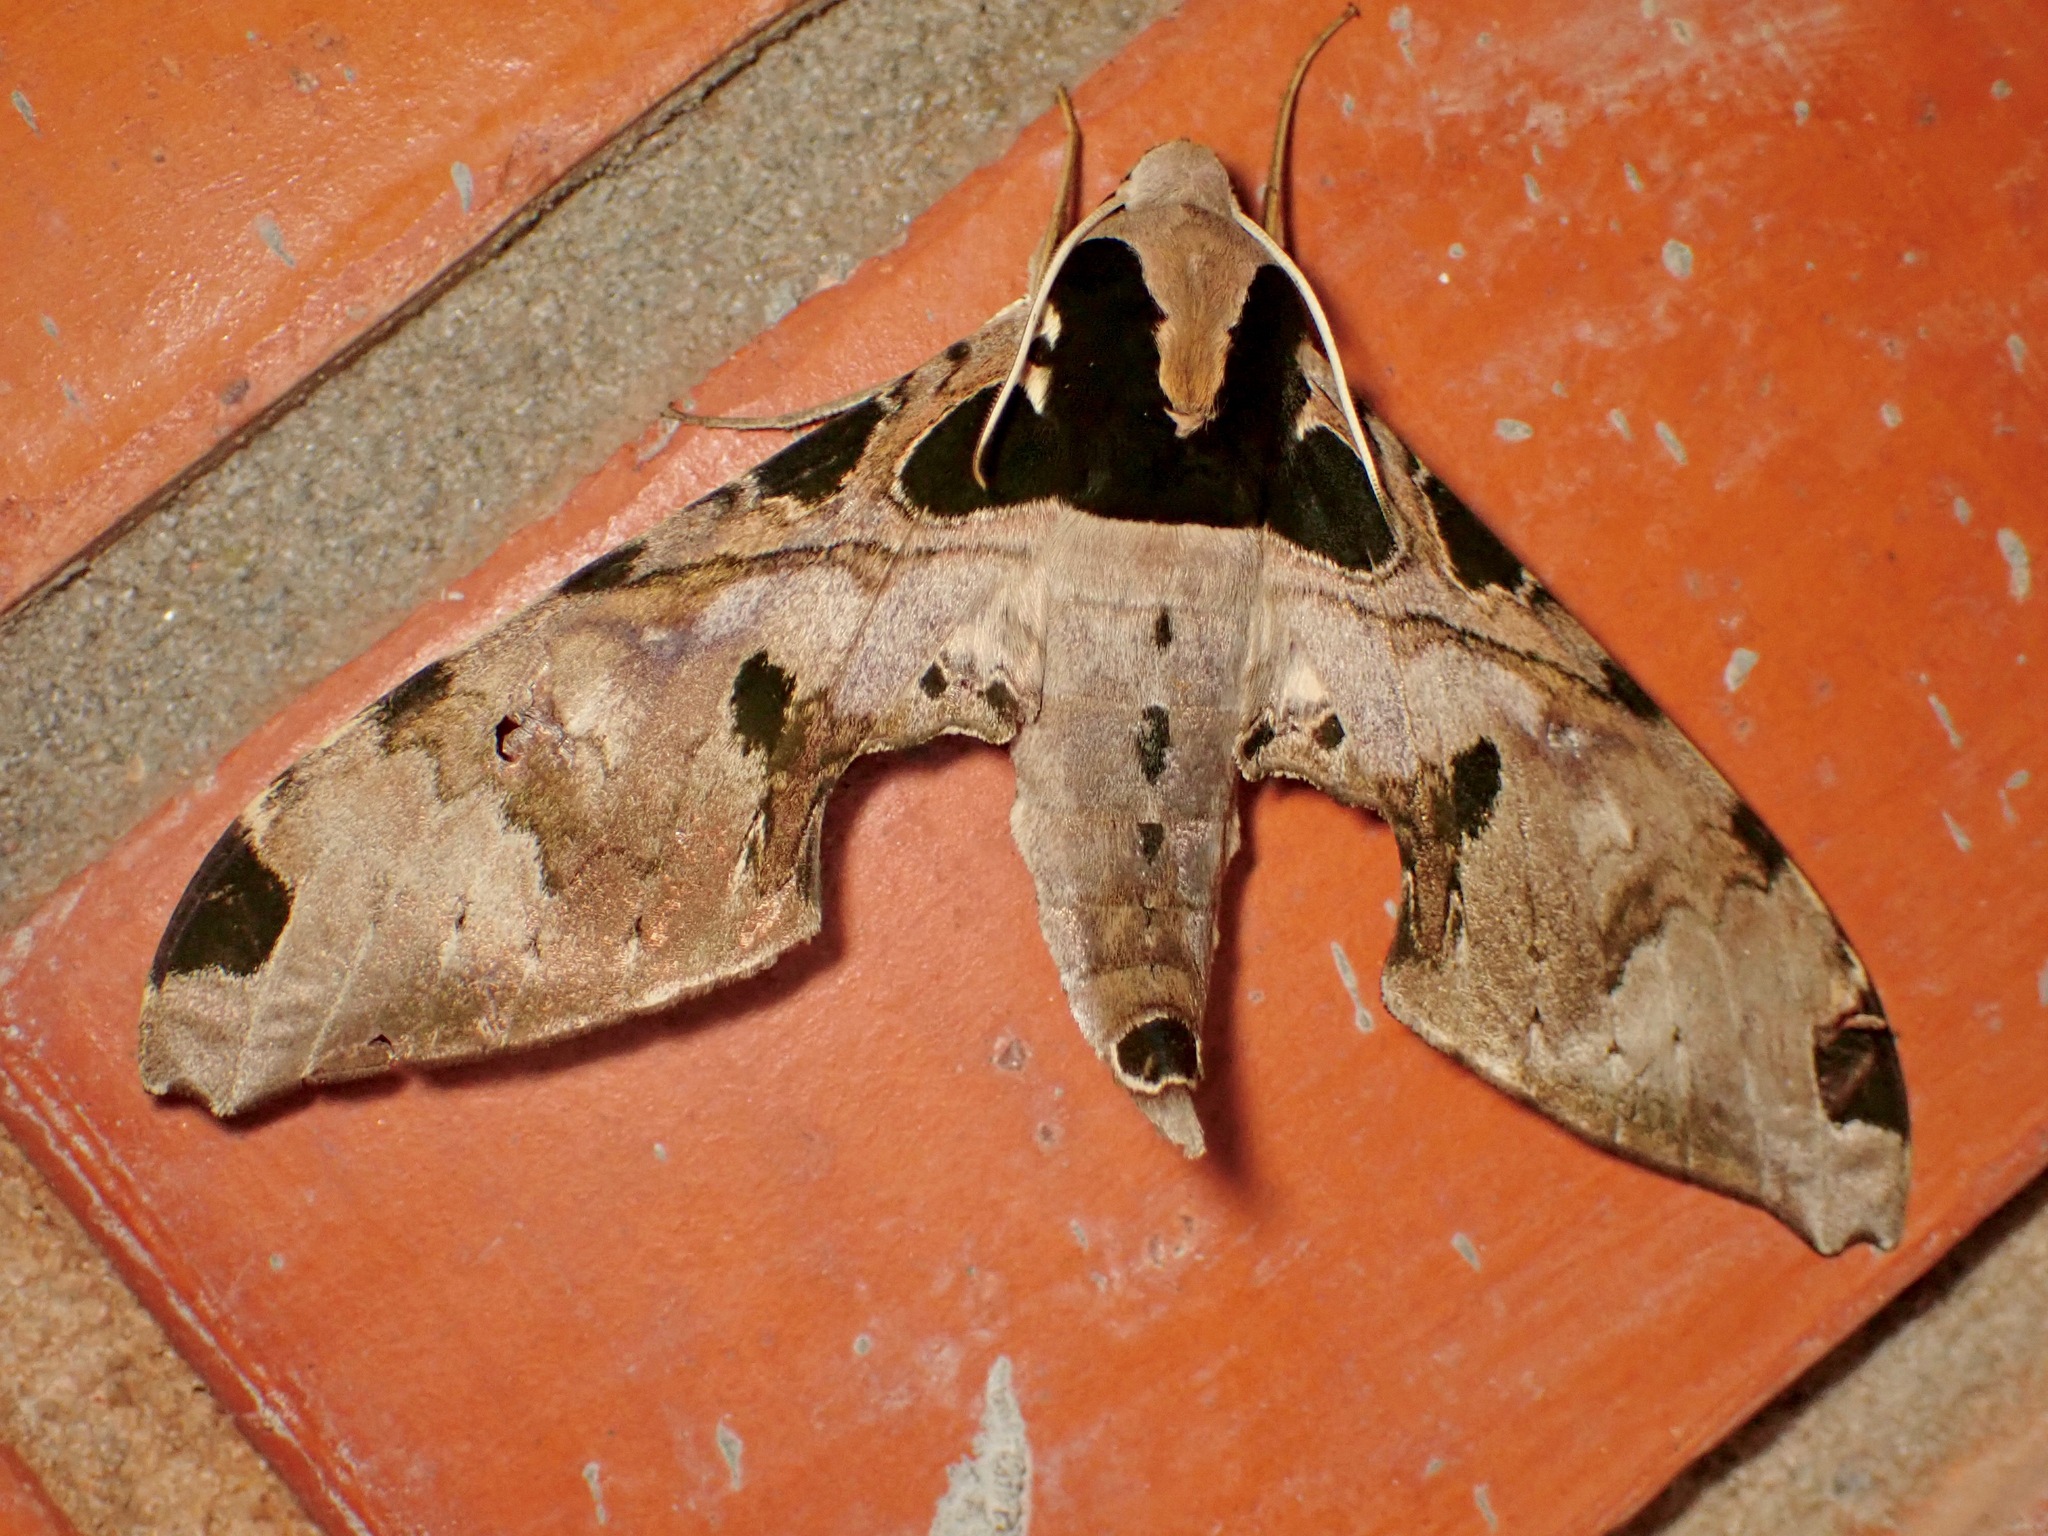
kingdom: Animalia
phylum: Arthropoda
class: Insecta
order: Lepidoptera
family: Sphingidae
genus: Adhemarius
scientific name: Adhemarius palmeri
